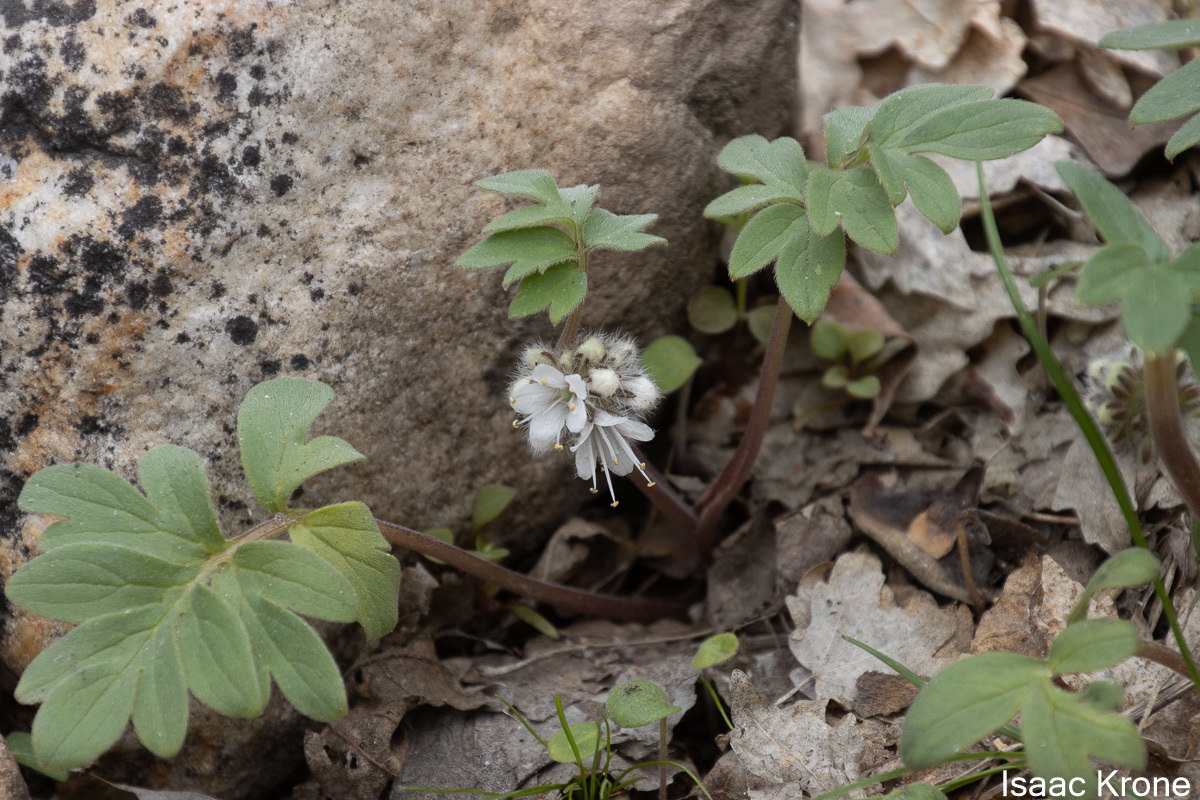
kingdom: Plantae
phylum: Tracheophyta
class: Magnoliopsida
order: Boraginales
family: Hydrophyllaceae
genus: Hydrophyllum
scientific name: Hydrophyllum capitatum
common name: Woollen-breeches
